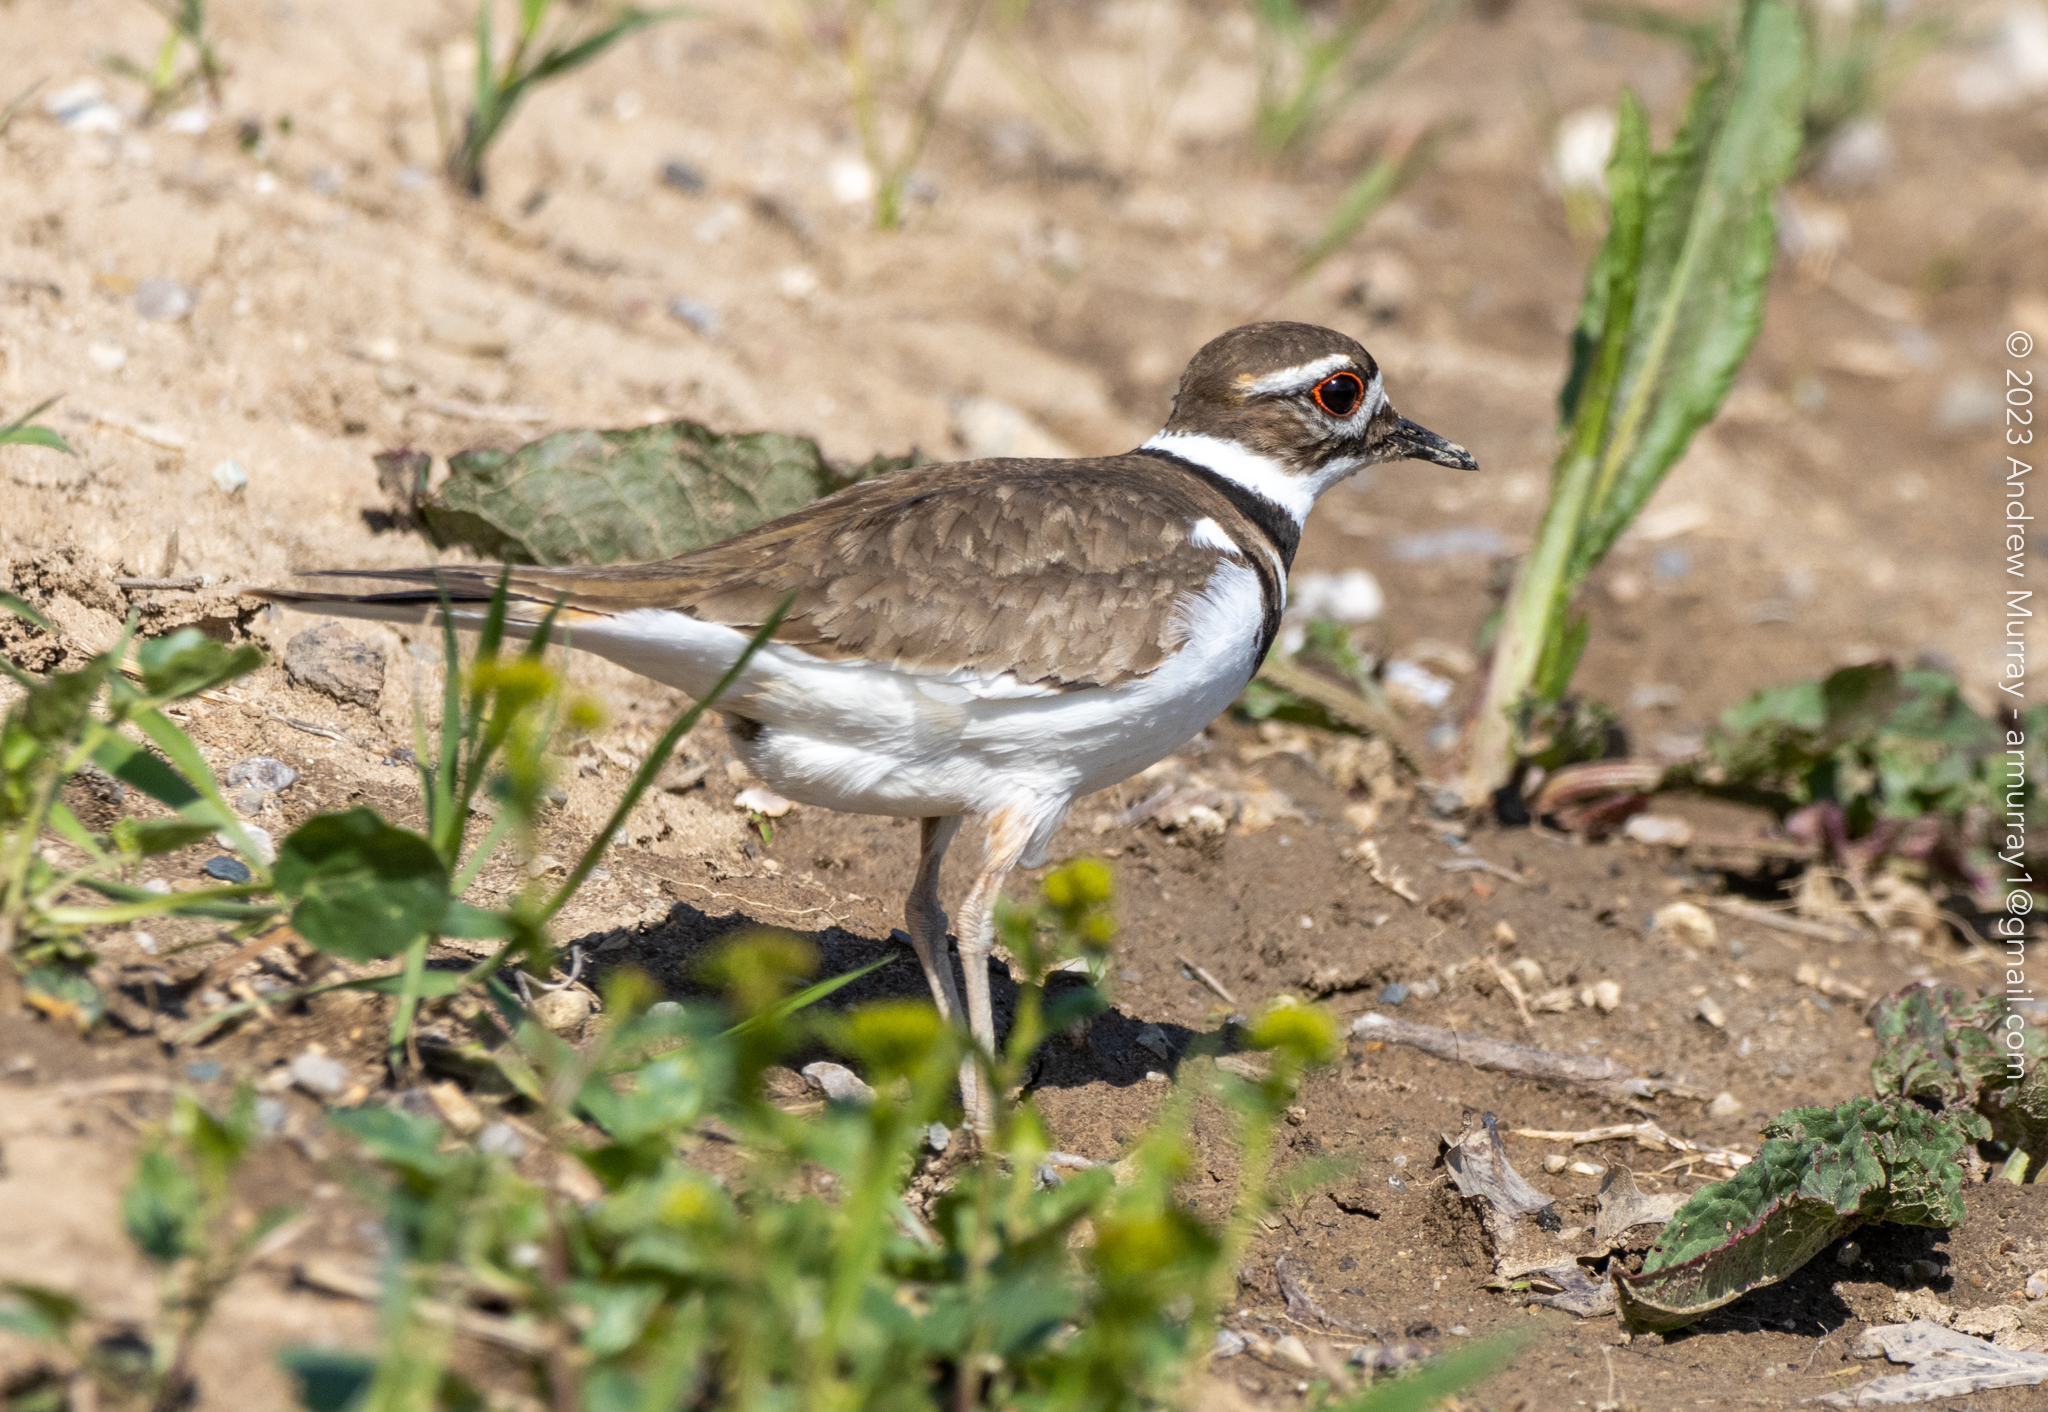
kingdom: Animalia
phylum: Chordata
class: Aves
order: Charadriiformes
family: Charadriidae
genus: Charadrius
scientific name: Charadrius vociferus
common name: Killdeer
